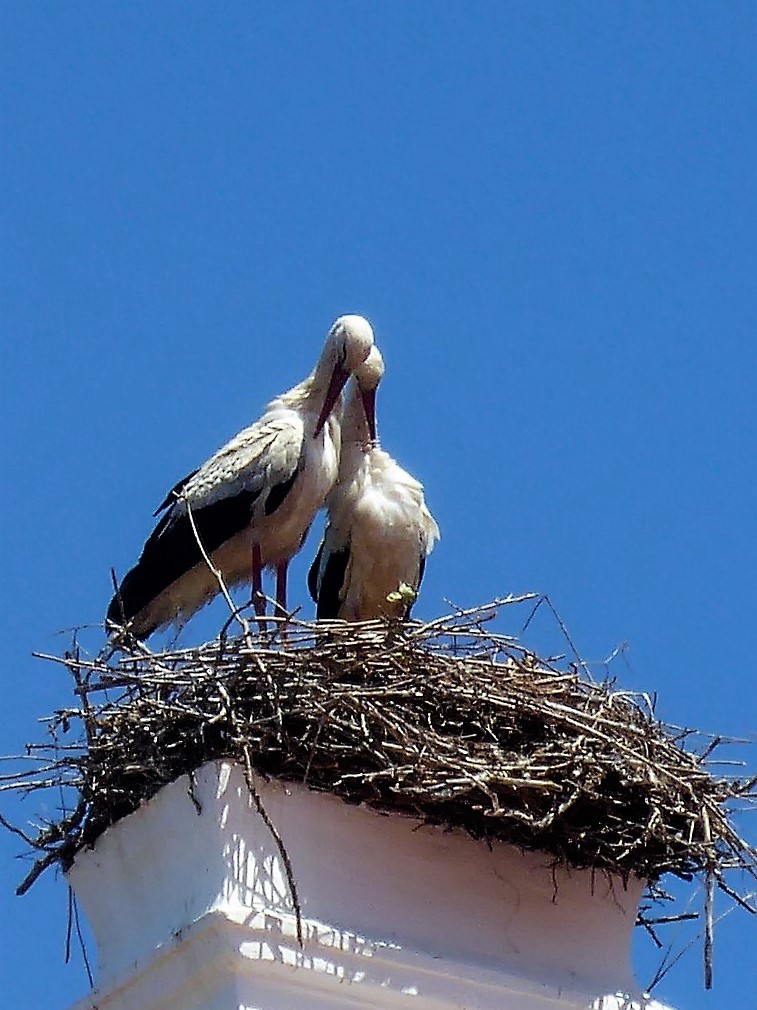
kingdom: Animalia
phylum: Chordata
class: Aves
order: Ciconiiformes
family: Ciconiidae
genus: Ciconia
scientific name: Ciconia ciconia
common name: White stork
